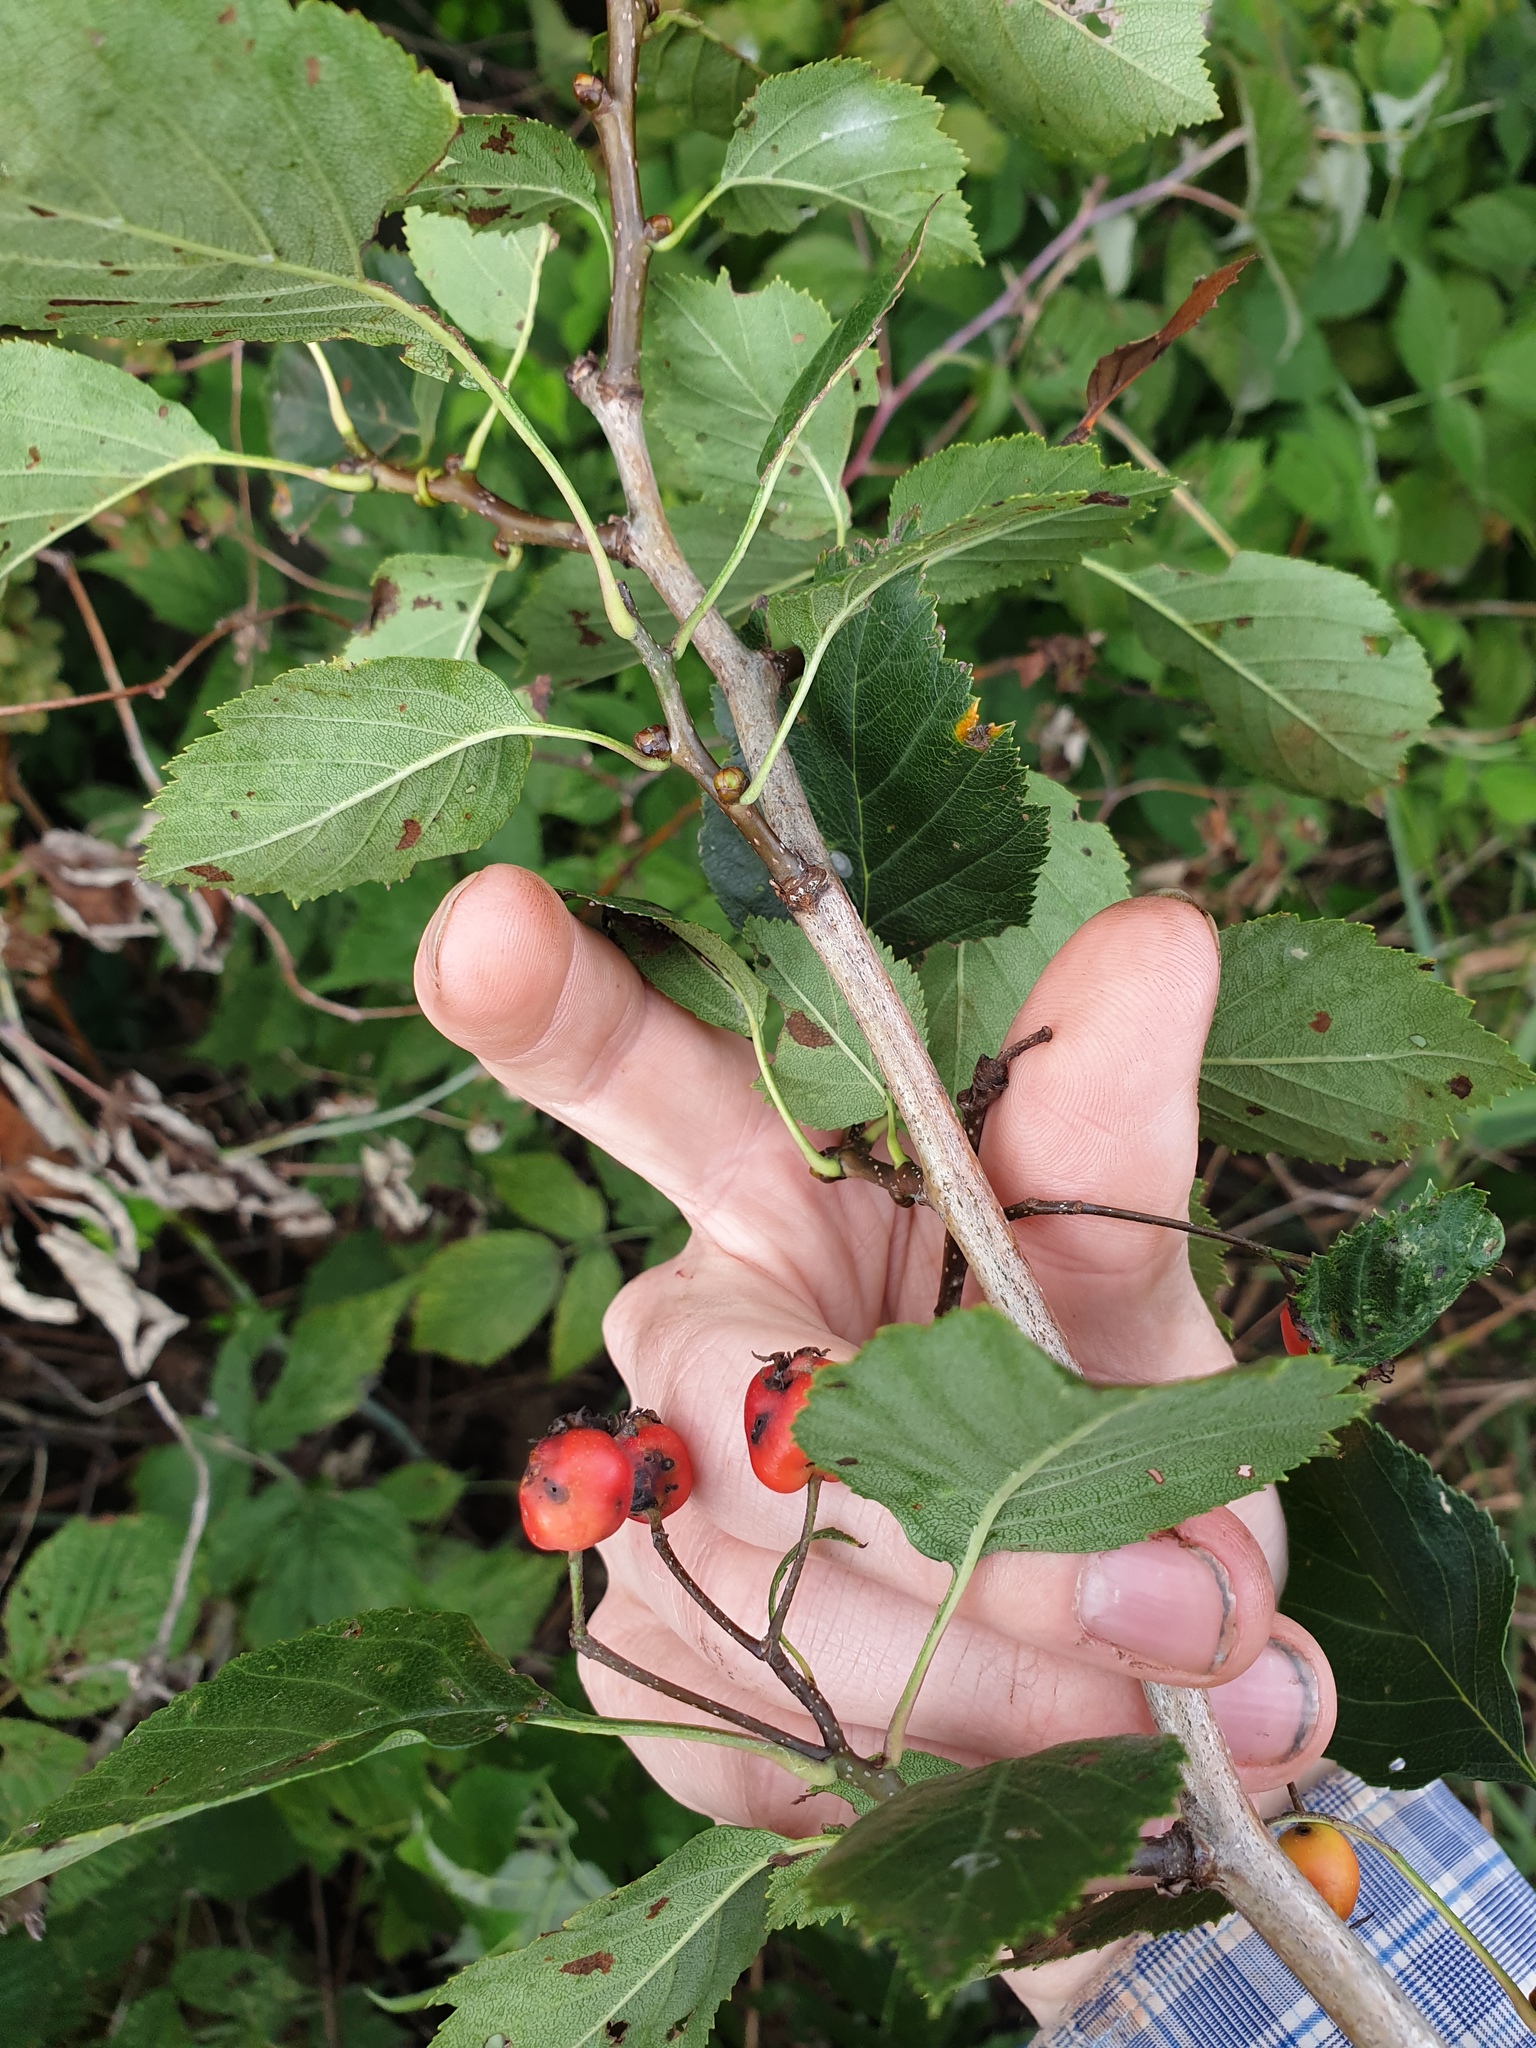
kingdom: Plantae
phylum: Tracheophyta
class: Magnoliopsida
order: Rosales
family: Rosaceae
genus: Crataegus
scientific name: Crataegus scabrida
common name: Rough hawthorn
